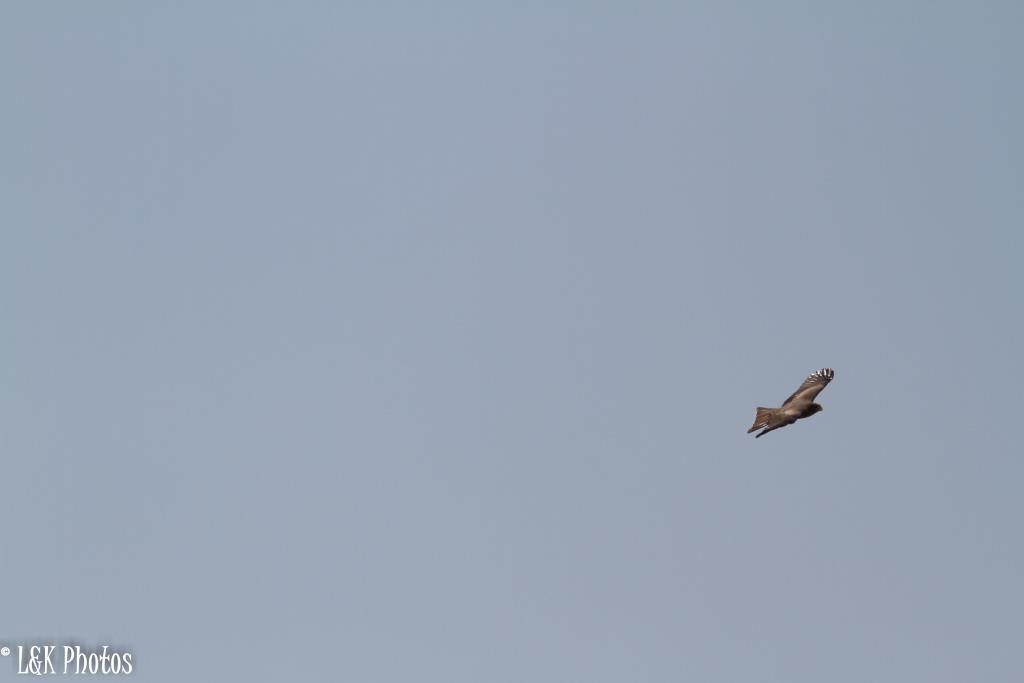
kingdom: Animalia
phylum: Chordata
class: Aves
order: Accipitriformes
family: Accipitridae
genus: Milvus
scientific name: Milvus migrans
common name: Black kite
